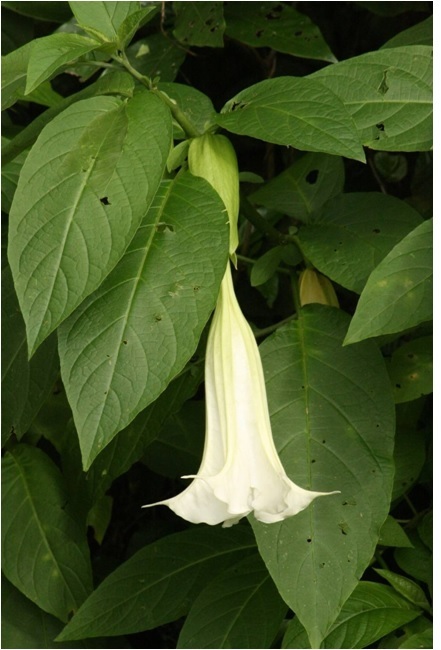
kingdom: Plantae
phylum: Tracheophyta
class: Magnoliopsida
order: Solanales
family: Solanaceae
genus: Brugmansia
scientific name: Brugmansia suaveolens
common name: Angel's tears
